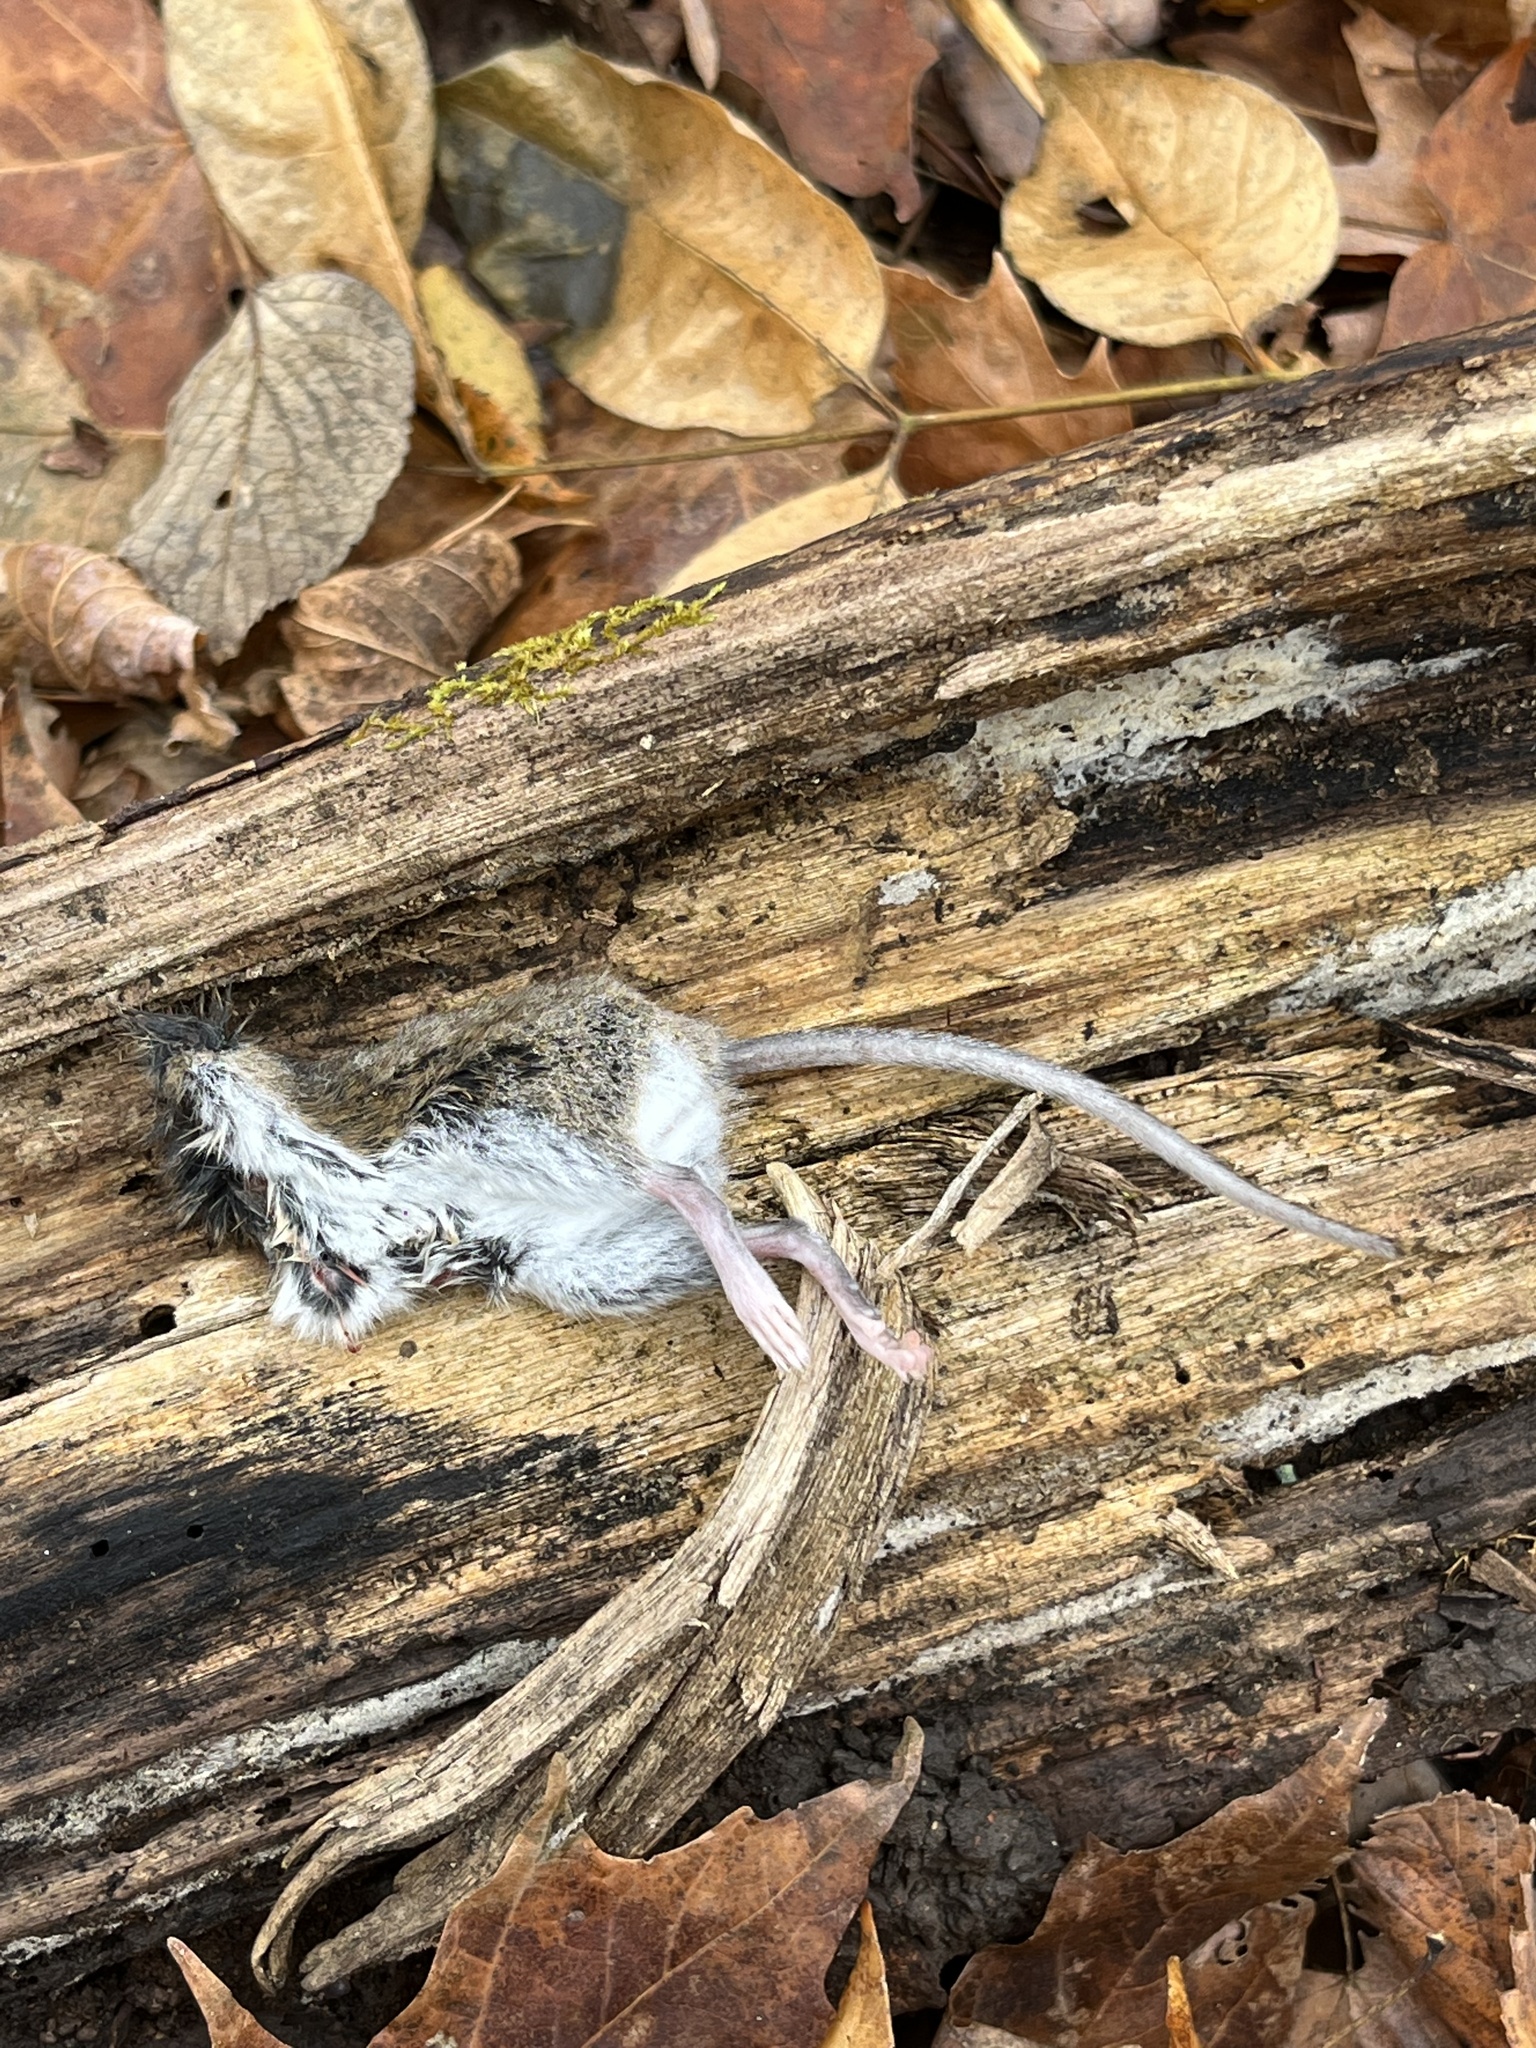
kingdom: Animalia
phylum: Chordata
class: Mammalia
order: Rodentia
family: Cricetidae
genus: Peromyscus
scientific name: Peromyscus leucopus
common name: White-footed deermouse
